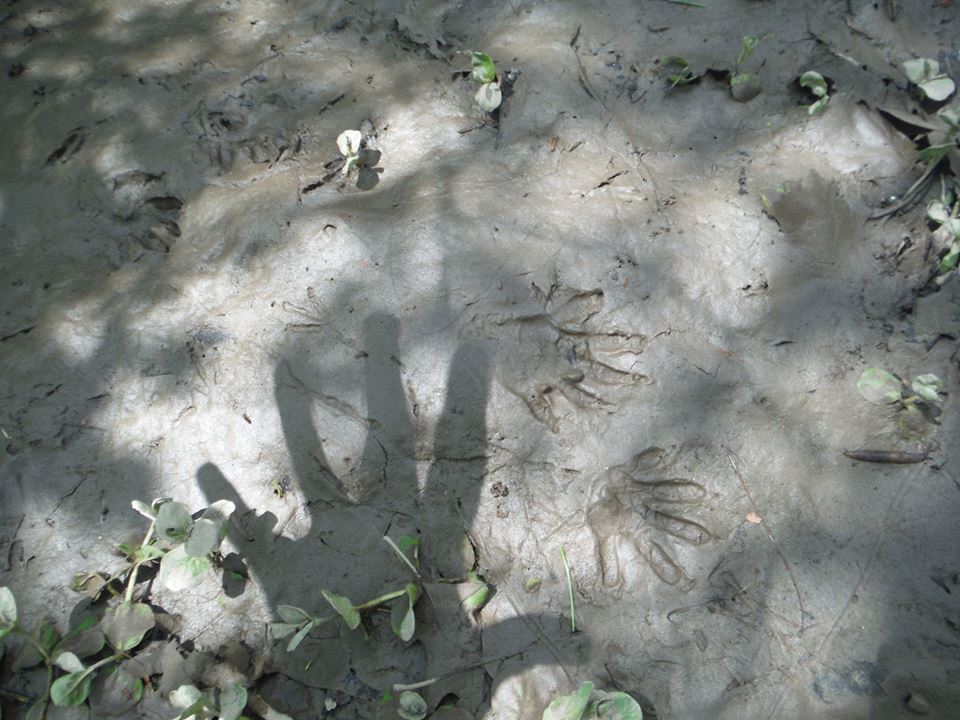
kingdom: Animalia
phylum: Chordata
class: Mammalia
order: Carnivora
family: Procyonidae
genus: Procyon
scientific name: Procyon lotor
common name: Raccoon
